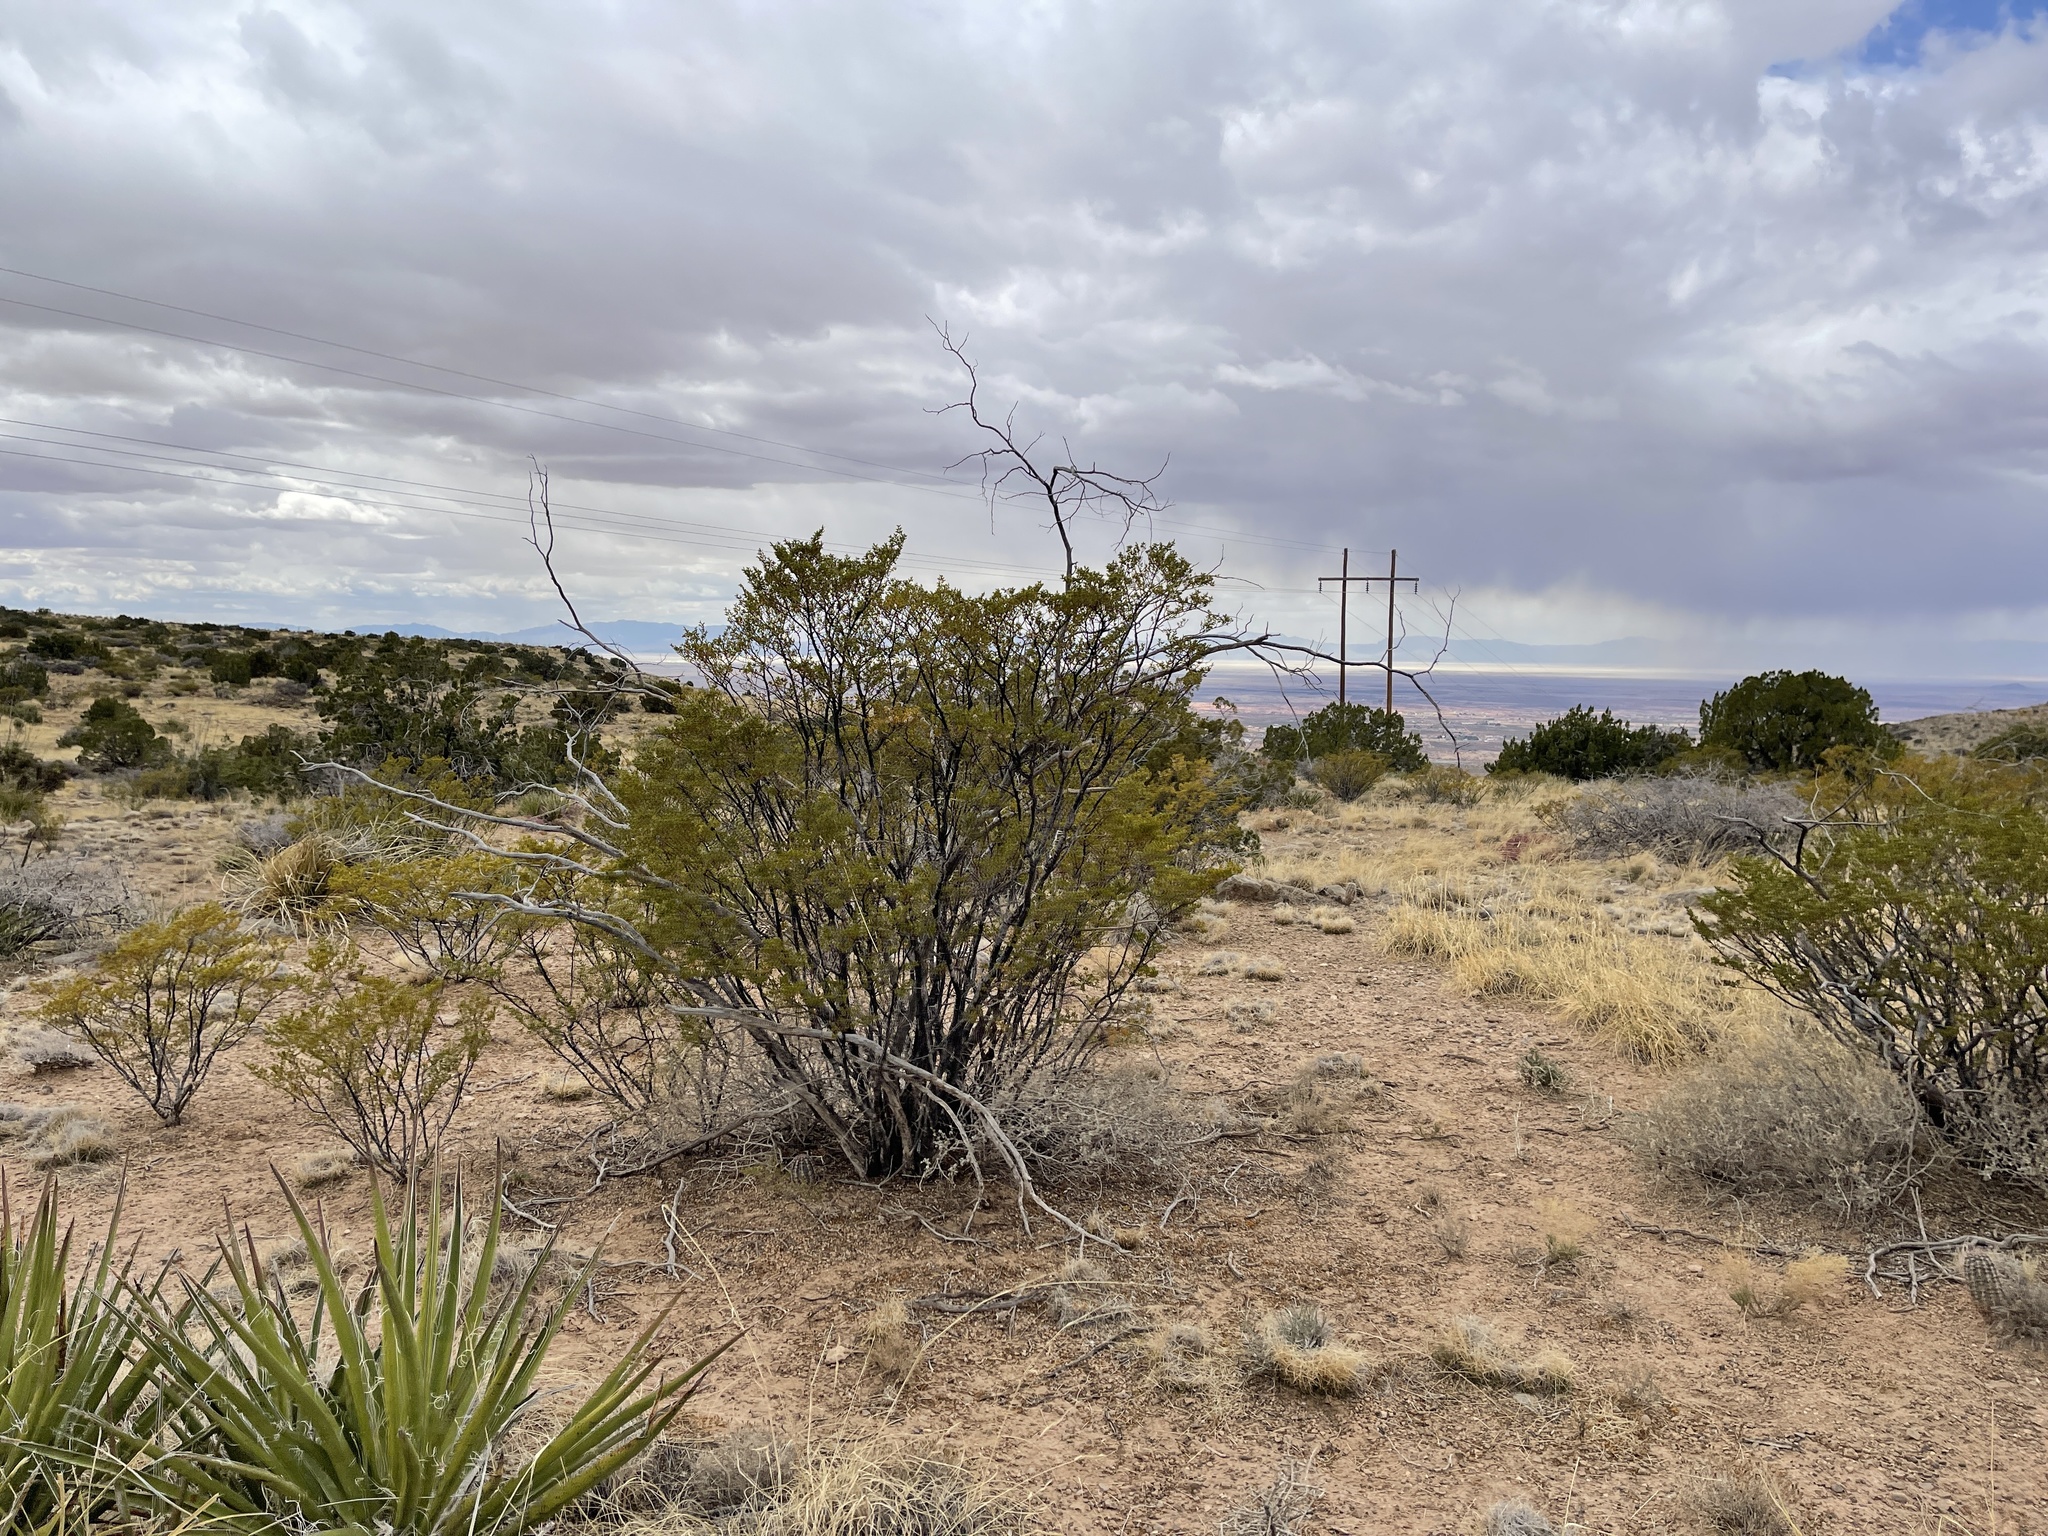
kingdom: Plantae
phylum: Tracheophyta
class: Magnoliopsida
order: Zygophyllales
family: Zygophyllaceae
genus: Larrea
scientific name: Larrea tridentata
